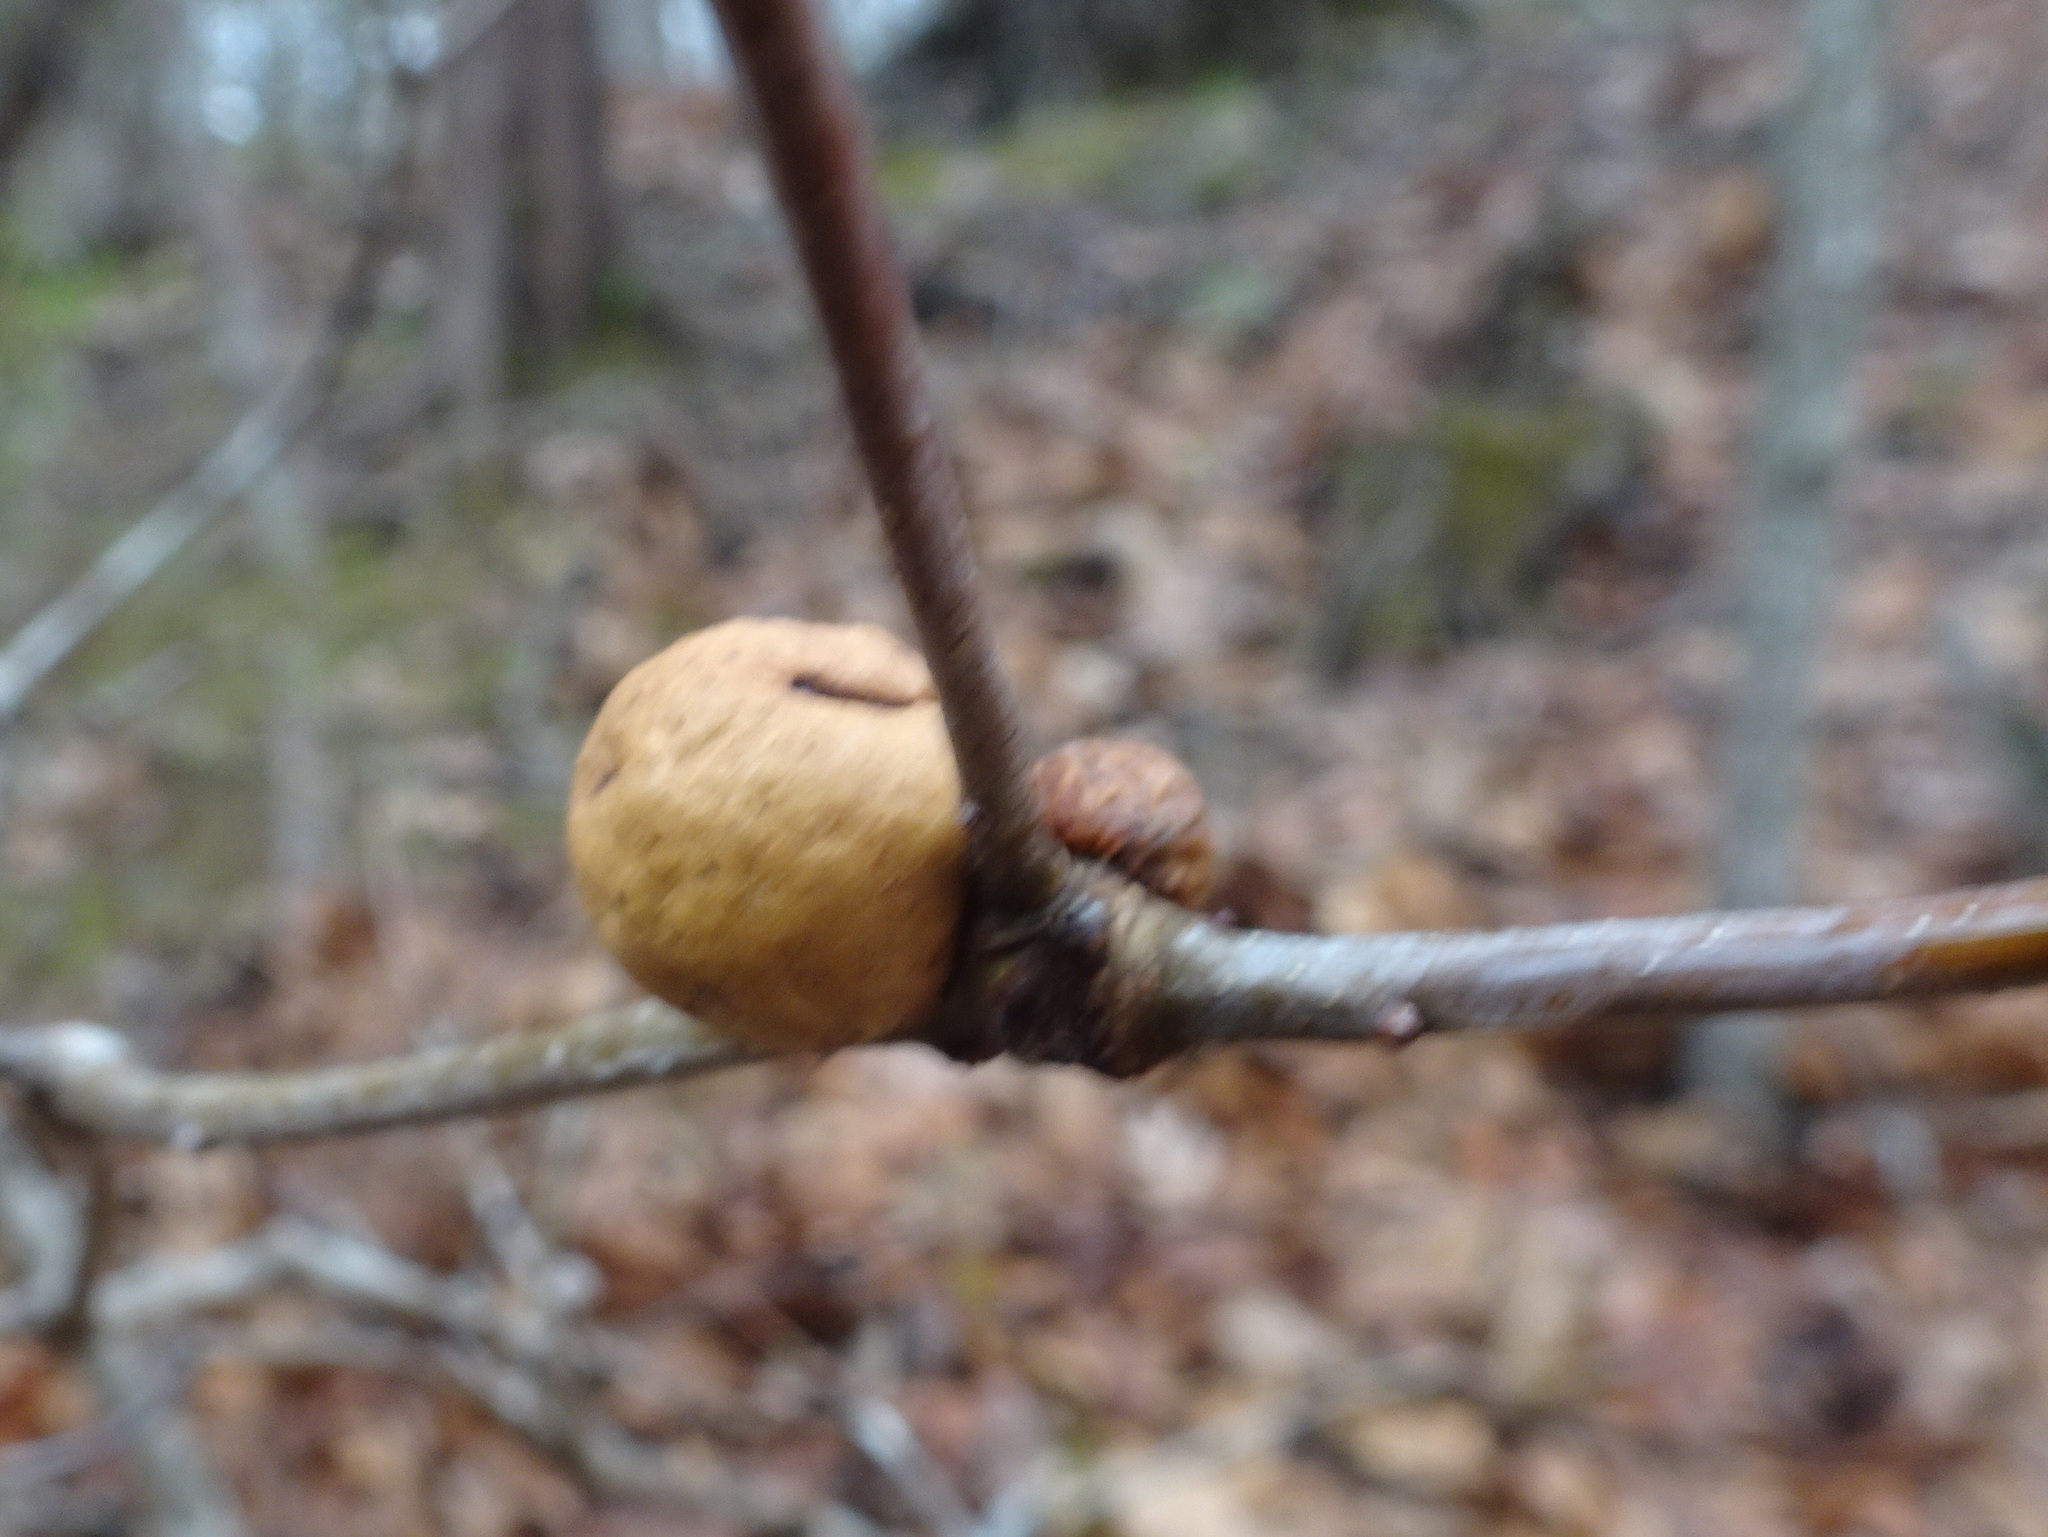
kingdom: Animalia
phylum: Arthropoda
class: Insecta
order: Hymenoptera
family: Cynipidae
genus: Disholcaspis
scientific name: Disholcaspis quercusglobulus
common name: Round bullet gall wasp
